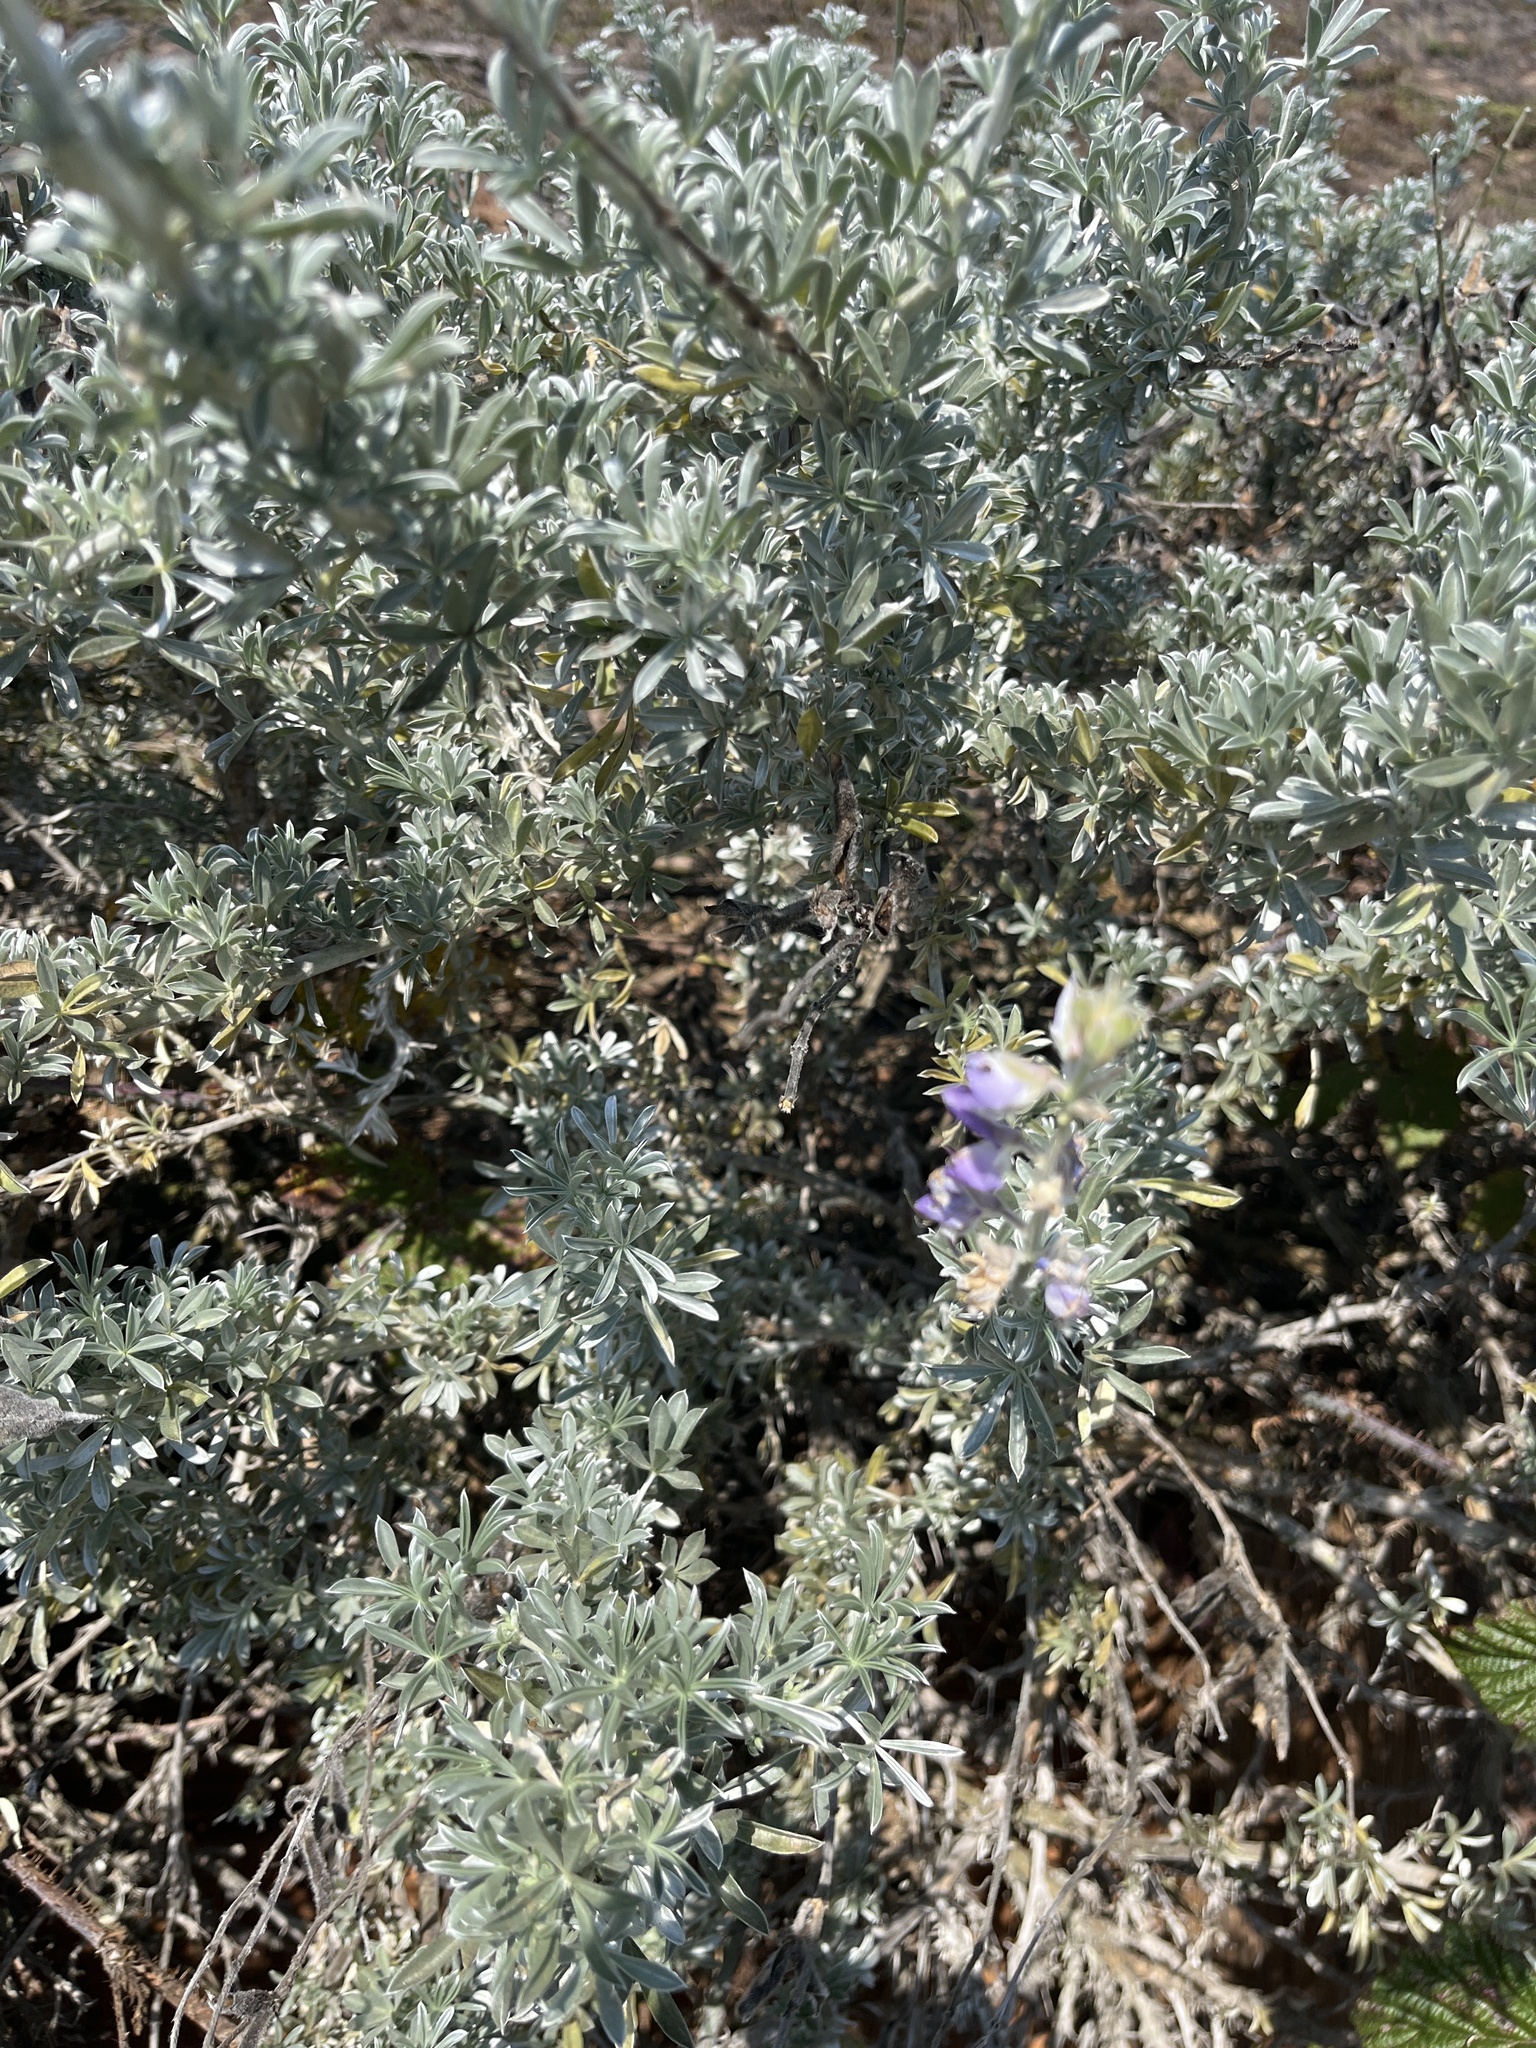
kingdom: Plantae
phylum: Tracheophyta
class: Magnoliopsida
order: Fabales
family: Fabaceae
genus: Lupinus
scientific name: Lupinus chamissonis
